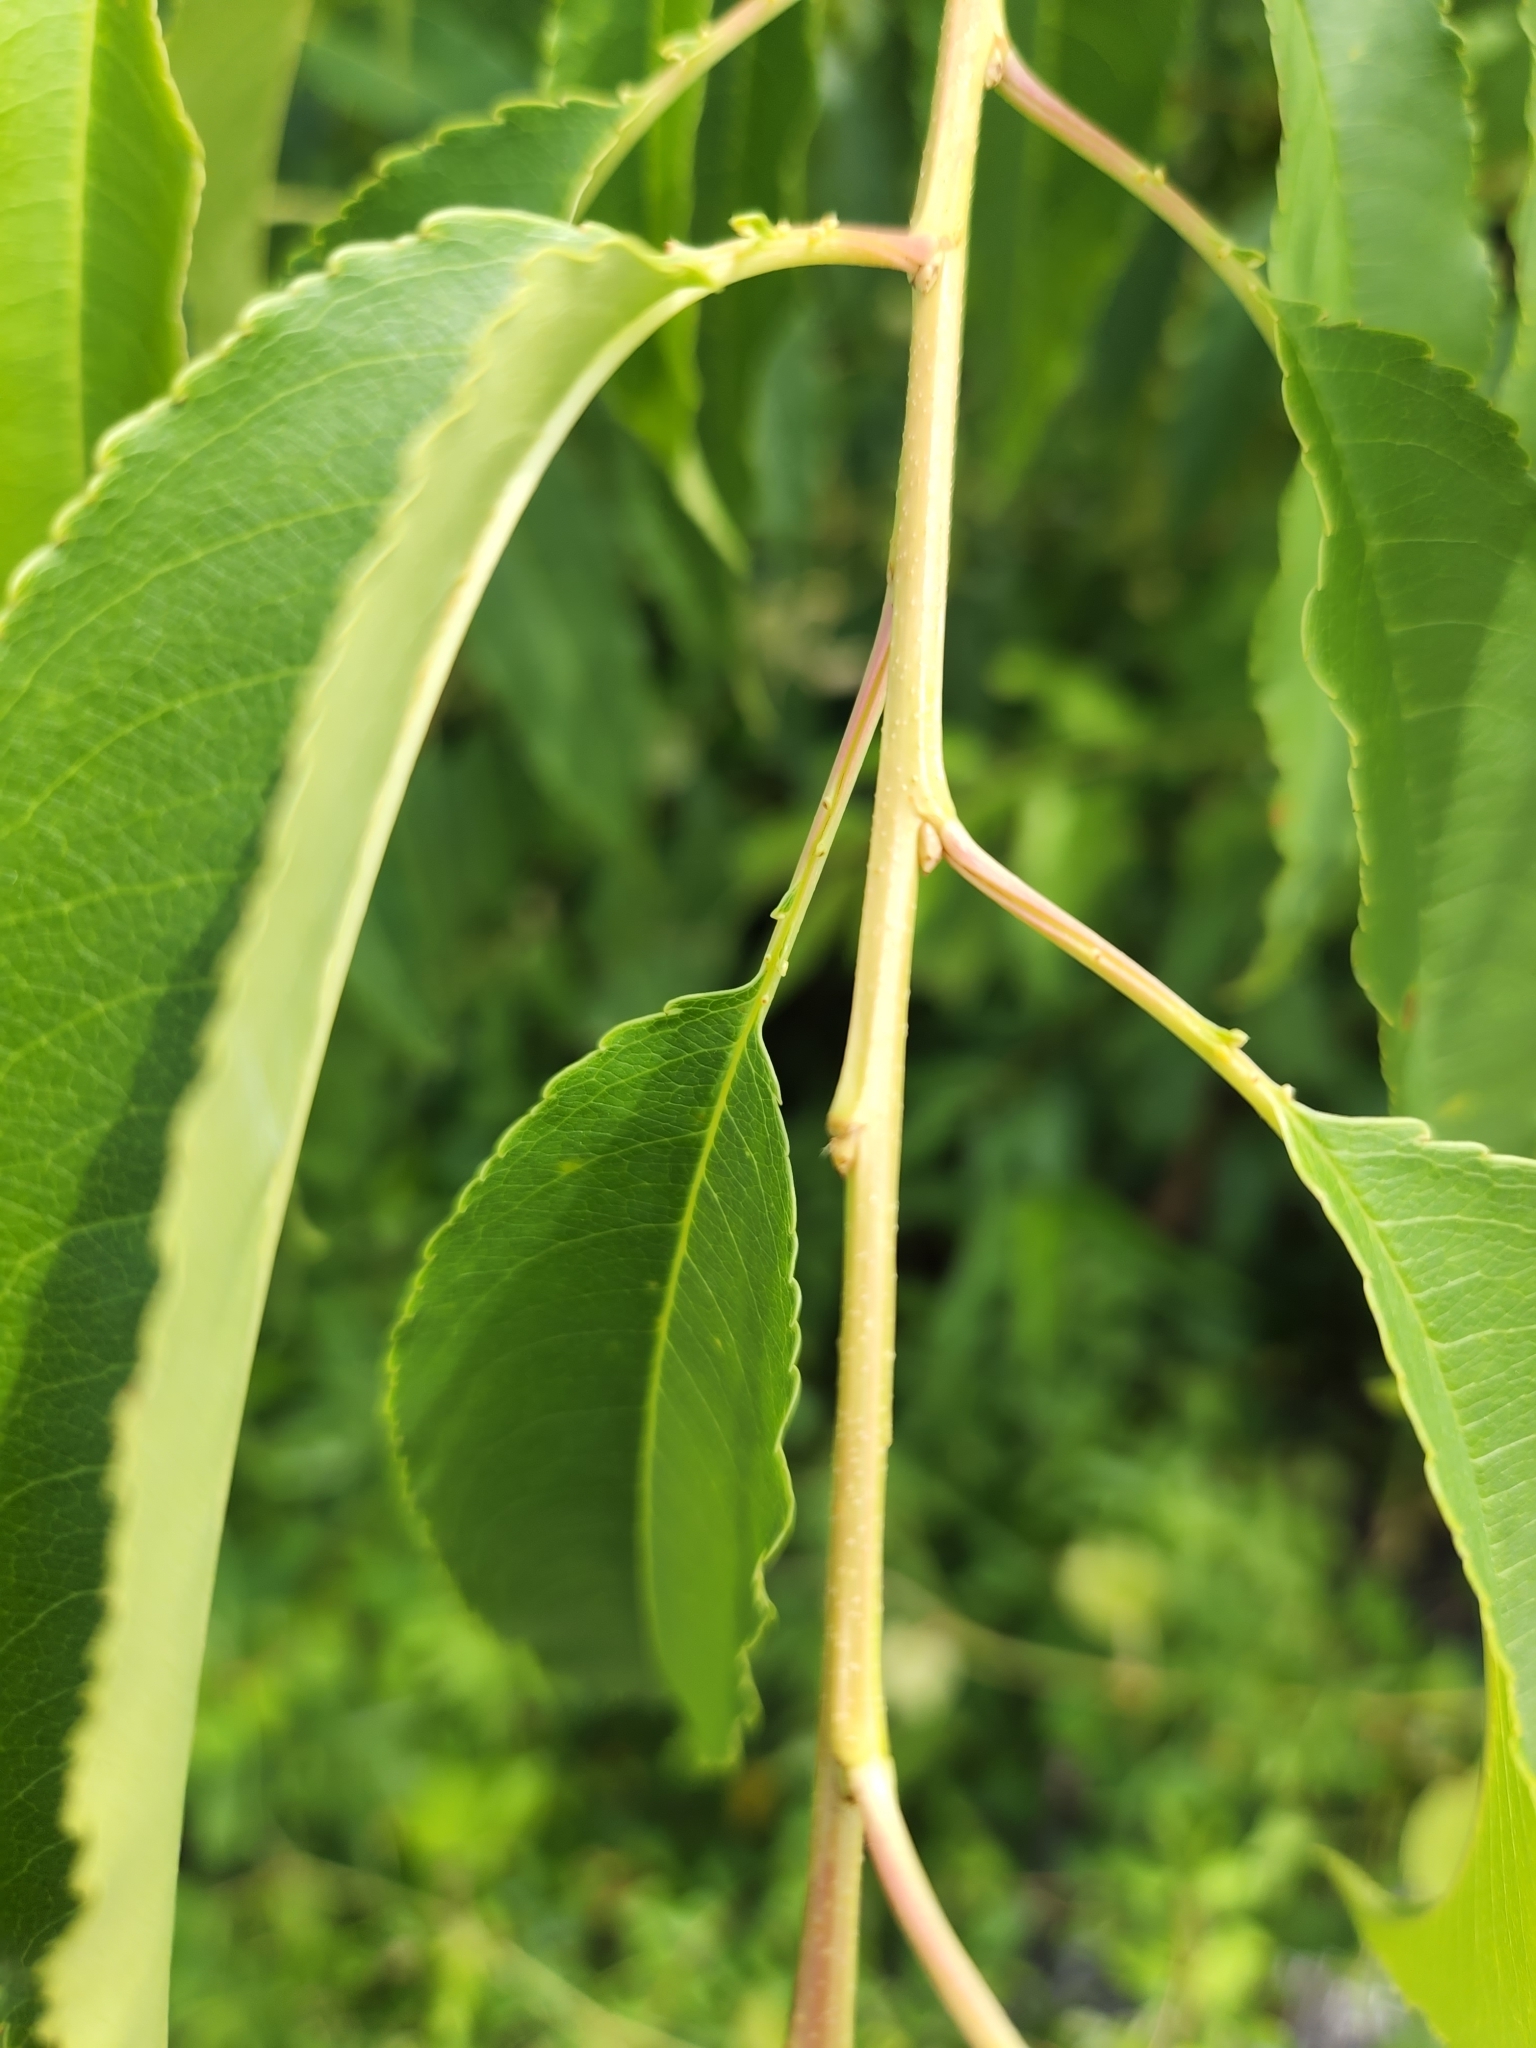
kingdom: Plantae
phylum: Tracheophyta
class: Magnoliopsida
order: Rosales
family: Rosaceae
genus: Prunus
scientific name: Prunus serotina
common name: Black cherry
